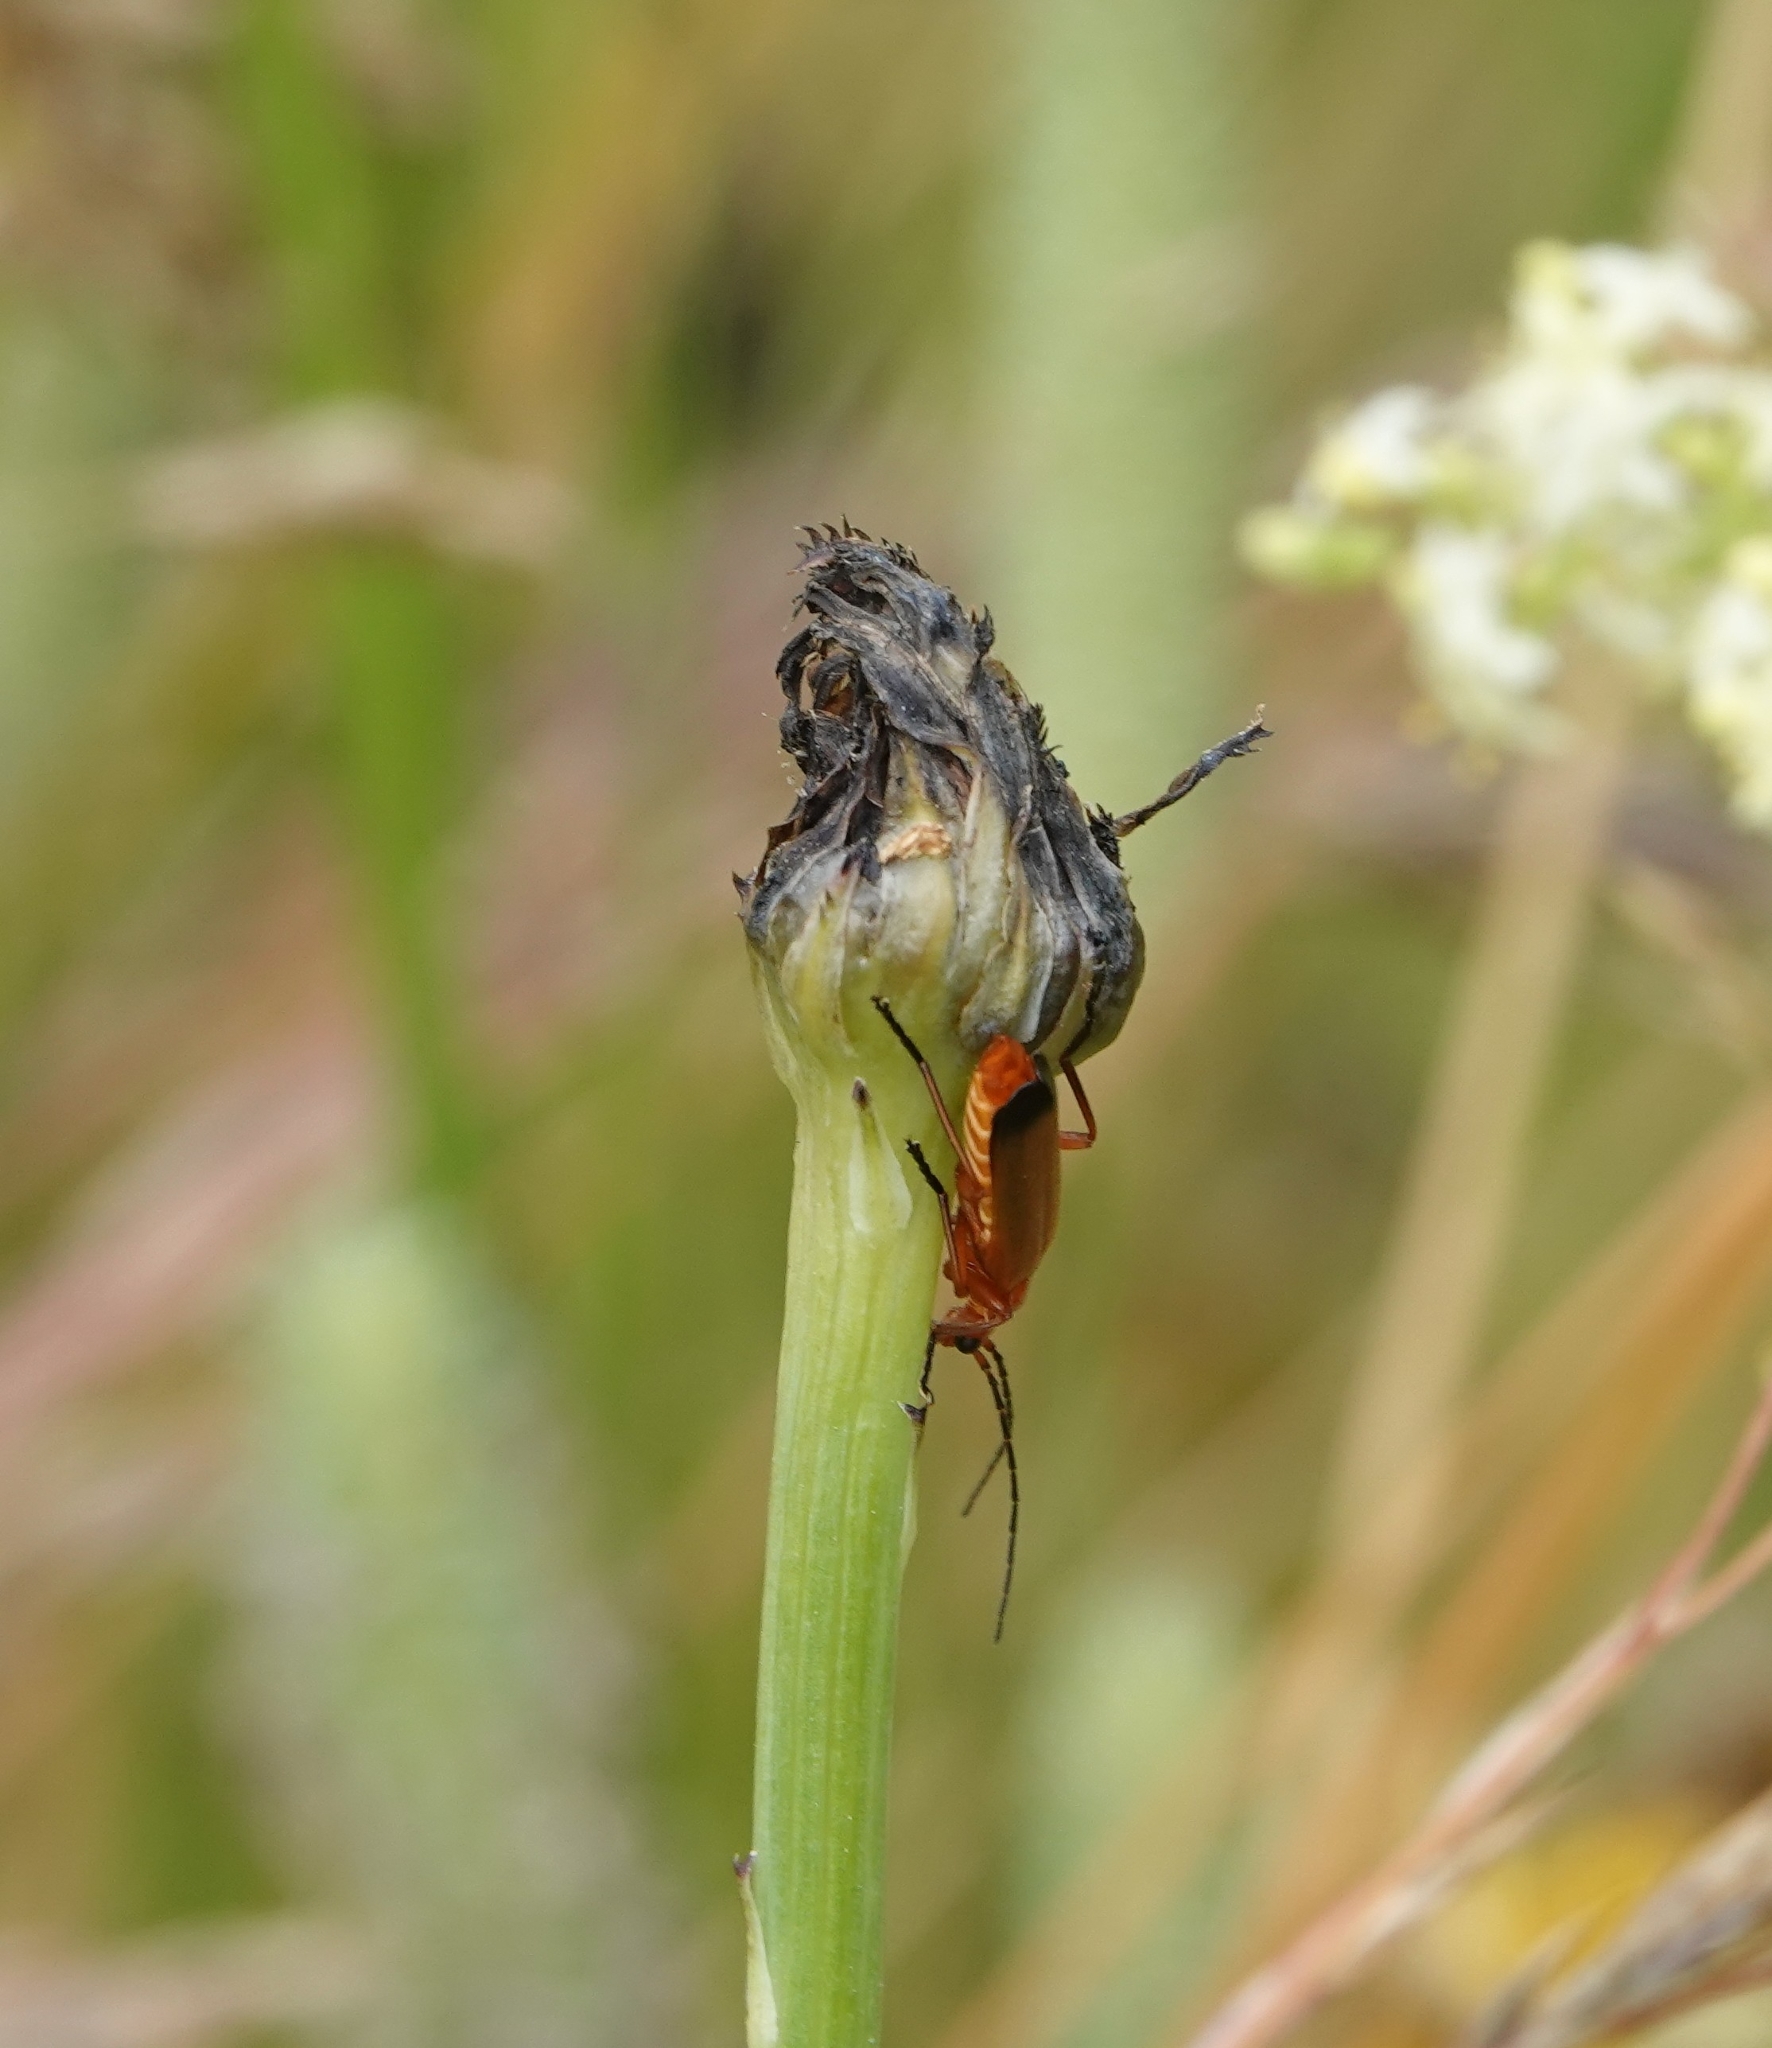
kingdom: Animalia
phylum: Arthropoda
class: Insecta
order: Coleoptera
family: Cantharidae
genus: Rhagonycha
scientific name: Rhagonycha fulva
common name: Common red soldier beetle
